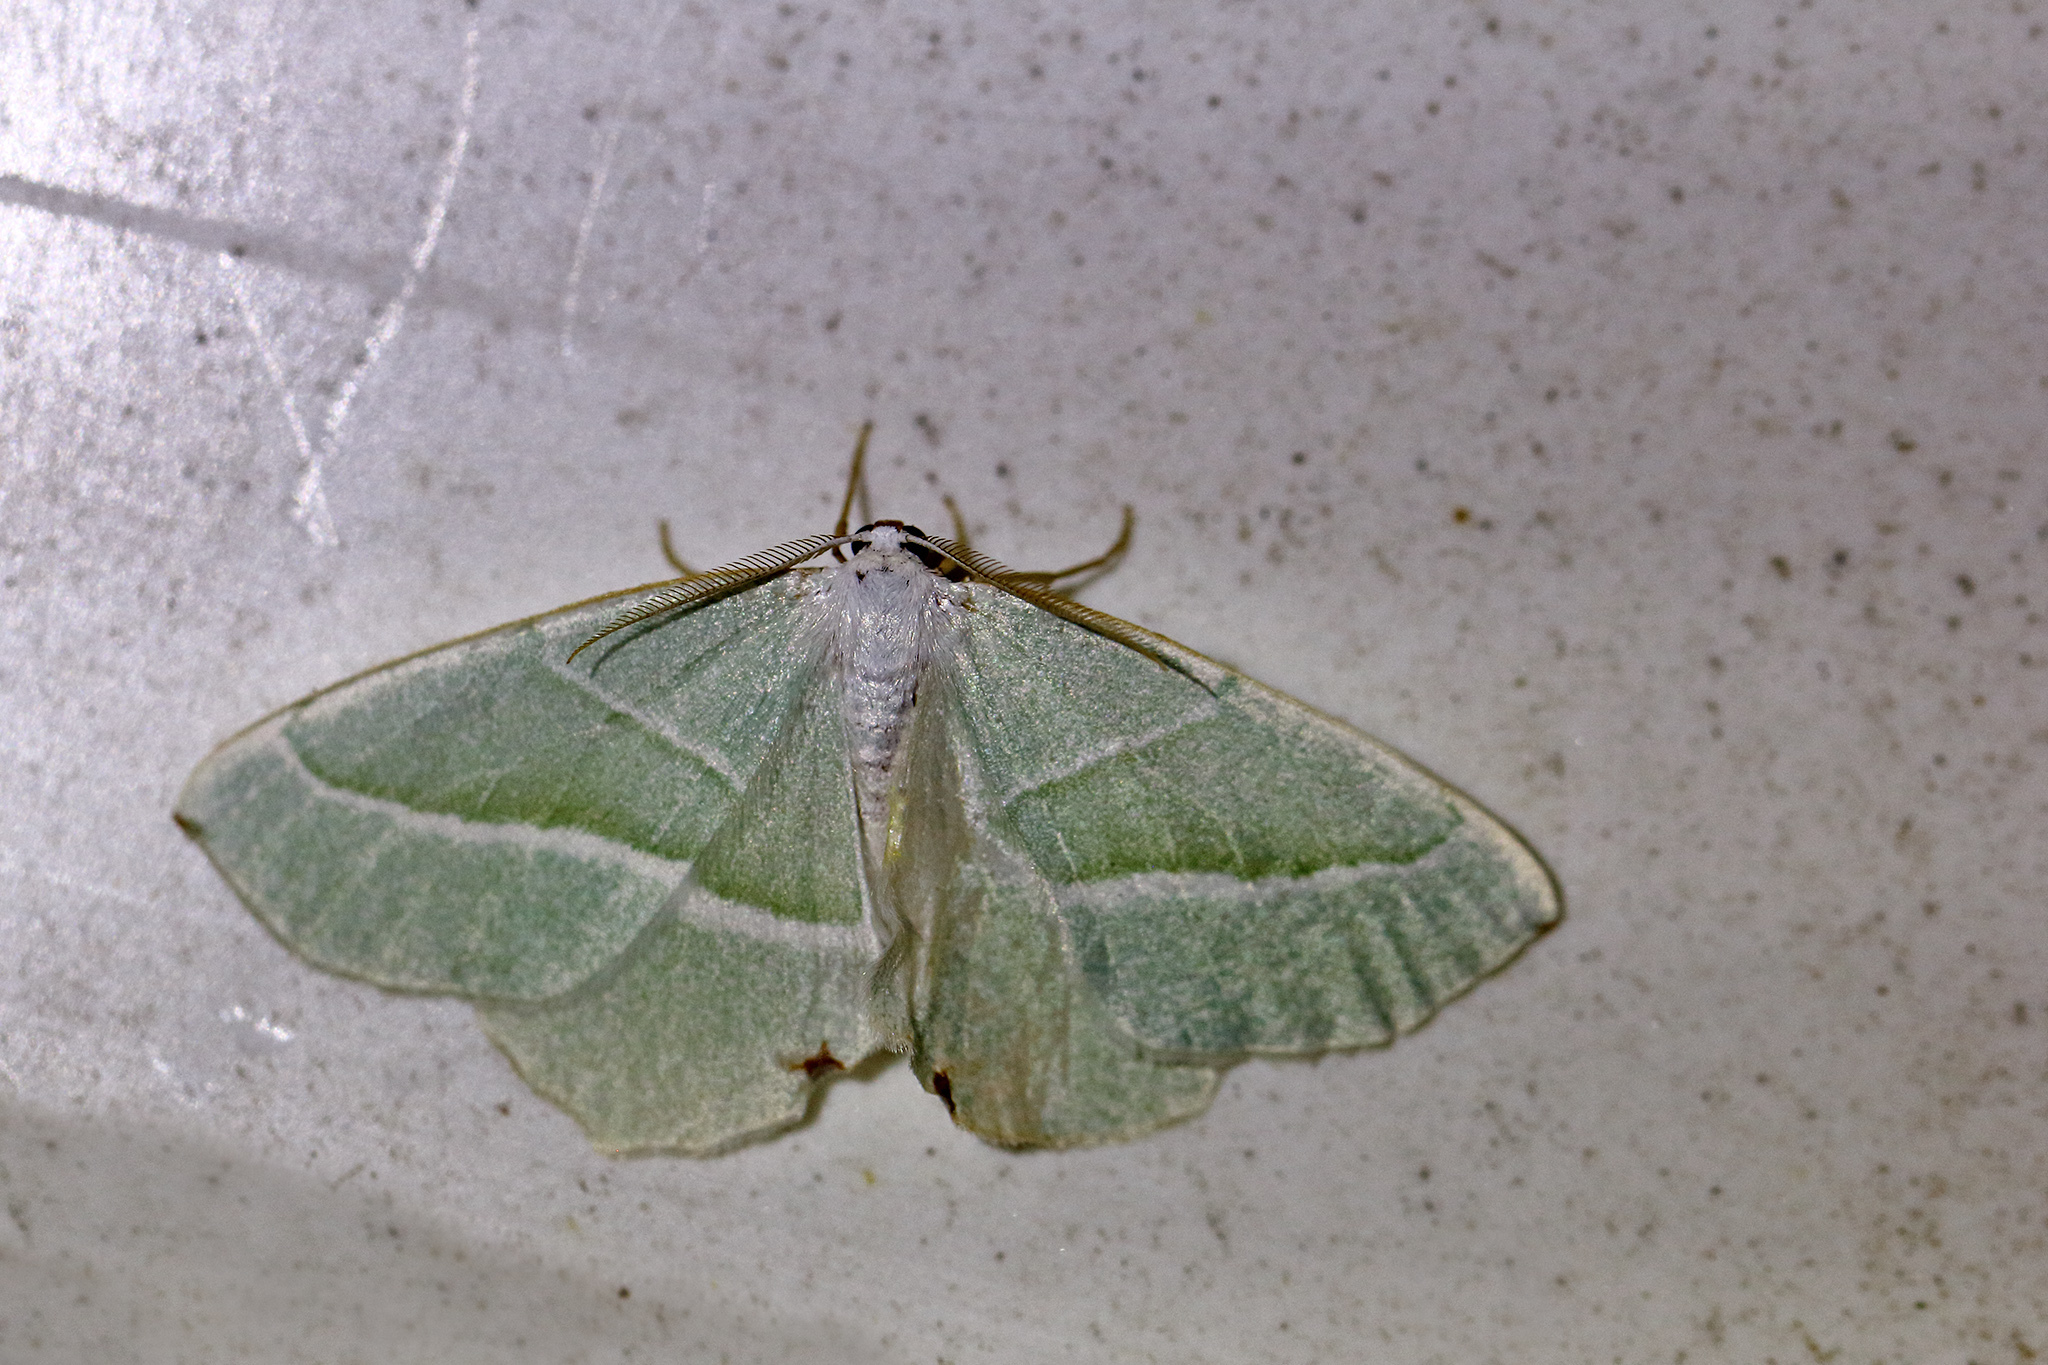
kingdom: Animalia
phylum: Arthropoda
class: Insecta
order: Lepidoptera
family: Geometridae
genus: Campaea
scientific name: Campaea margaritaria
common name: Light emerald
